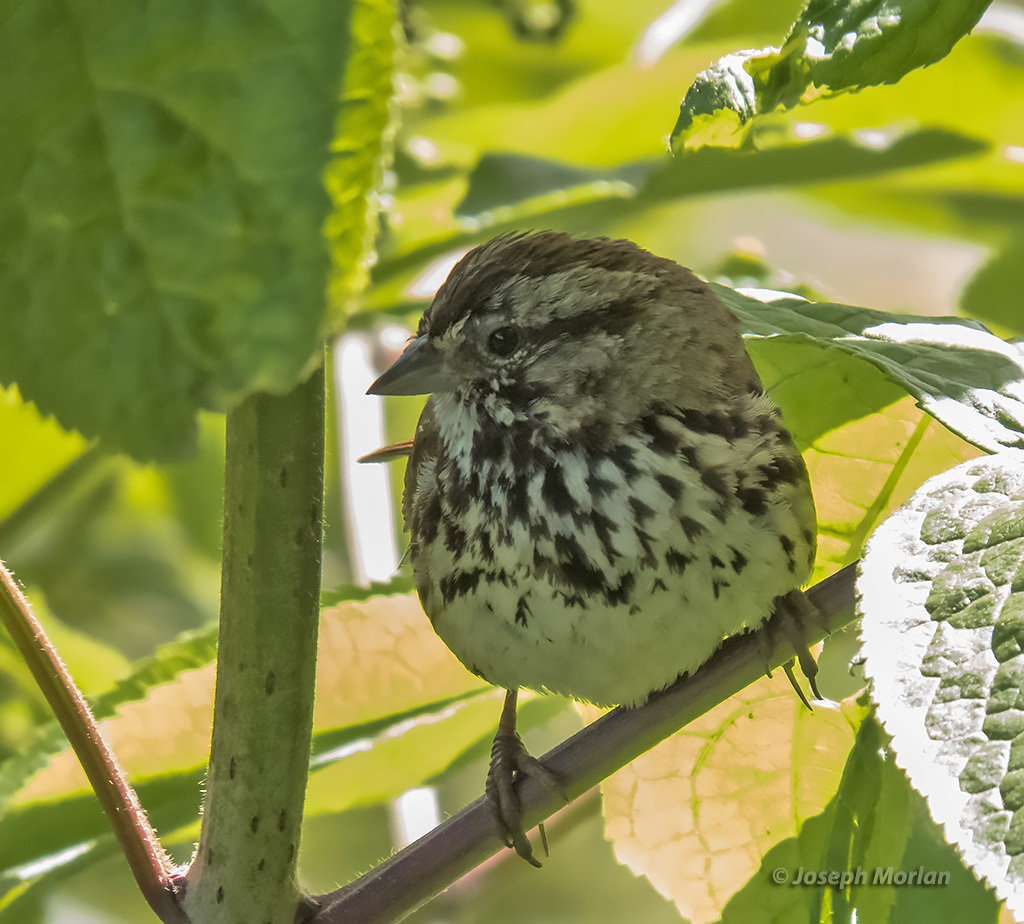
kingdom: Animalia
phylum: Chordata
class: Aves
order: Passeriformes
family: Passerellidae
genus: Melospiza
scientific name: Melospiza melodia
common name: Song sparrow
